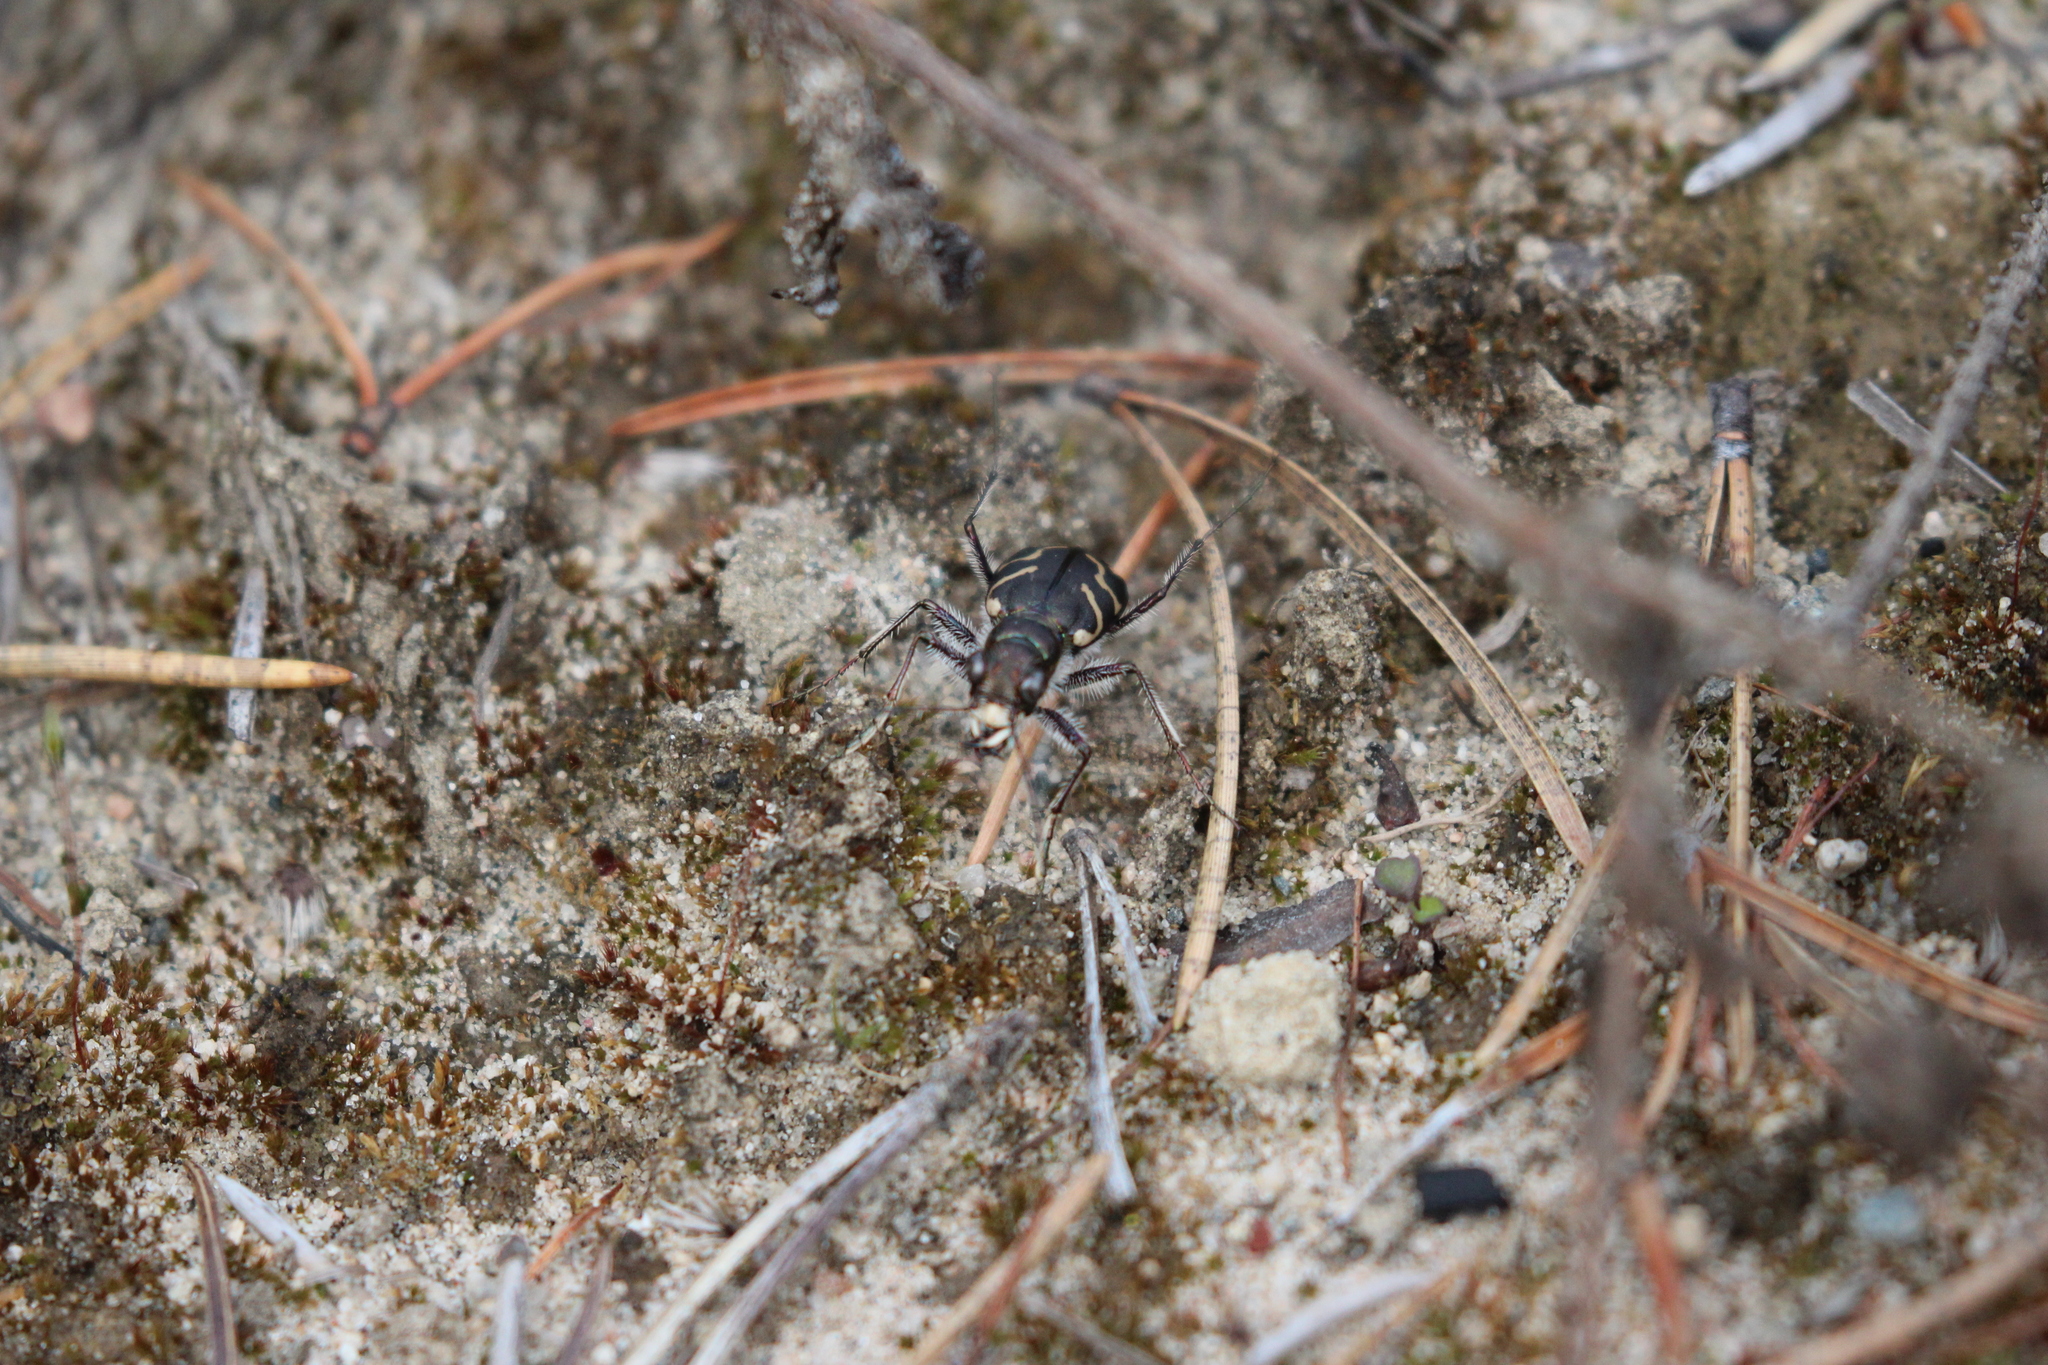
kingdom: Animalia
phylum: Arthropoda
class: Insecta
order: Coleoptera
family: Carabidae
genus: Cicindela
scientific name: Cicindela tranquebarica
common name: Oblique-lined tiger beetle
